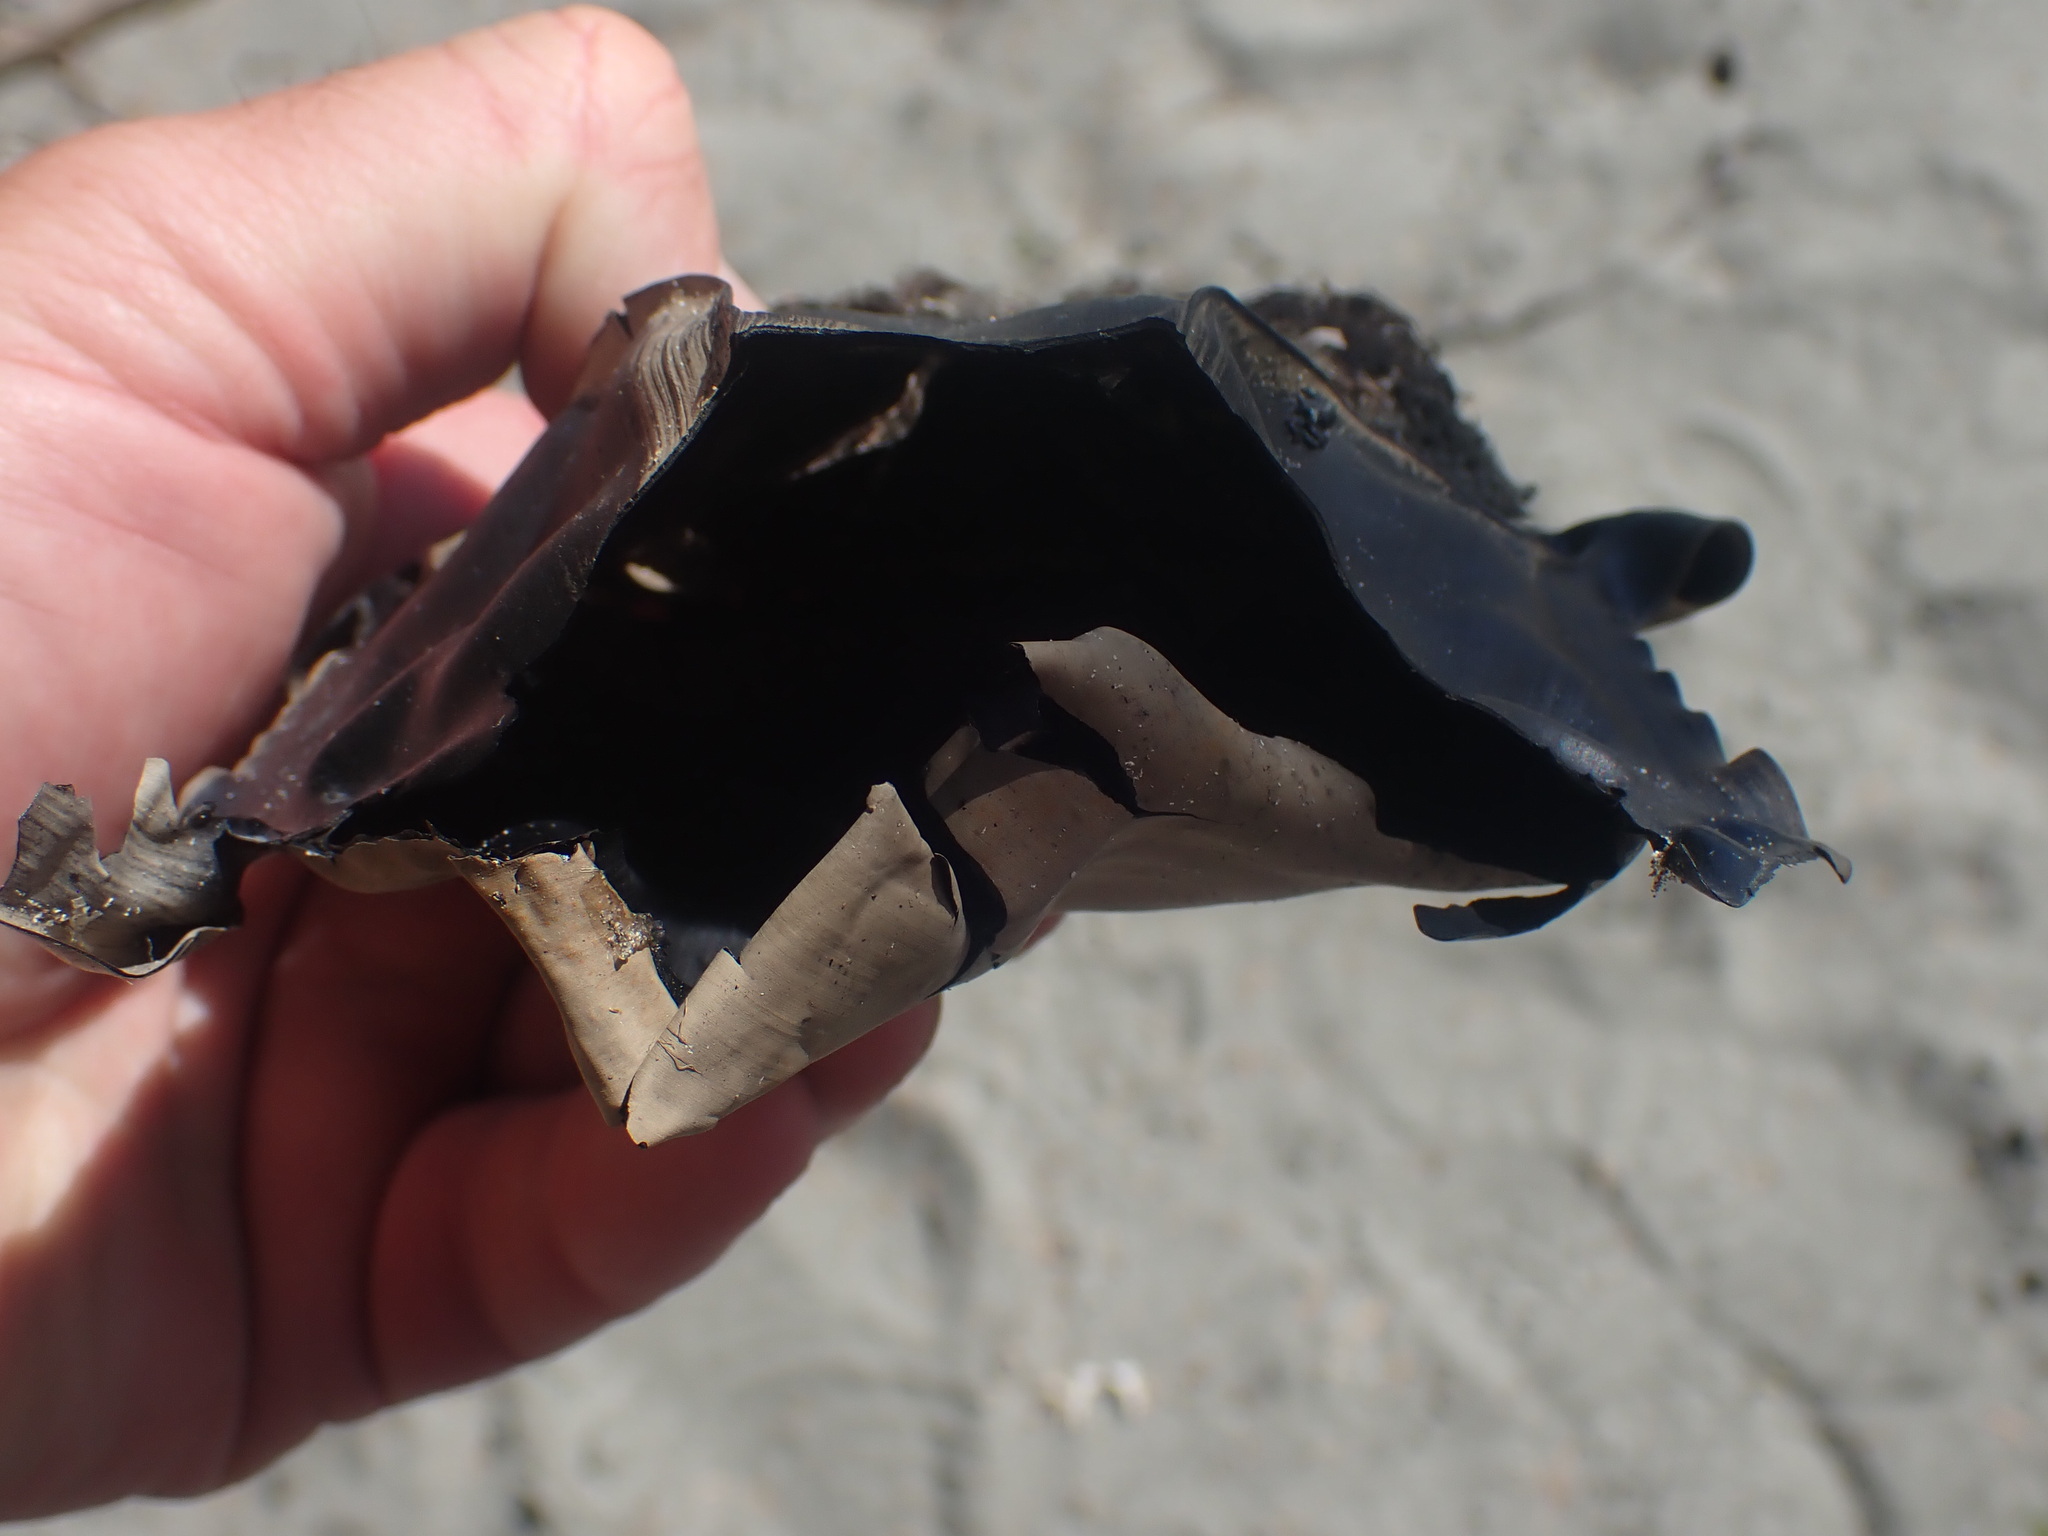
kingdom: Animalia
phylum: Chordata
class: Elasmobranchii
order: Rajiformes
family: Rajidae
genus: Beringraja
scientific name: Beringraja binoculata
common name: Big skate
